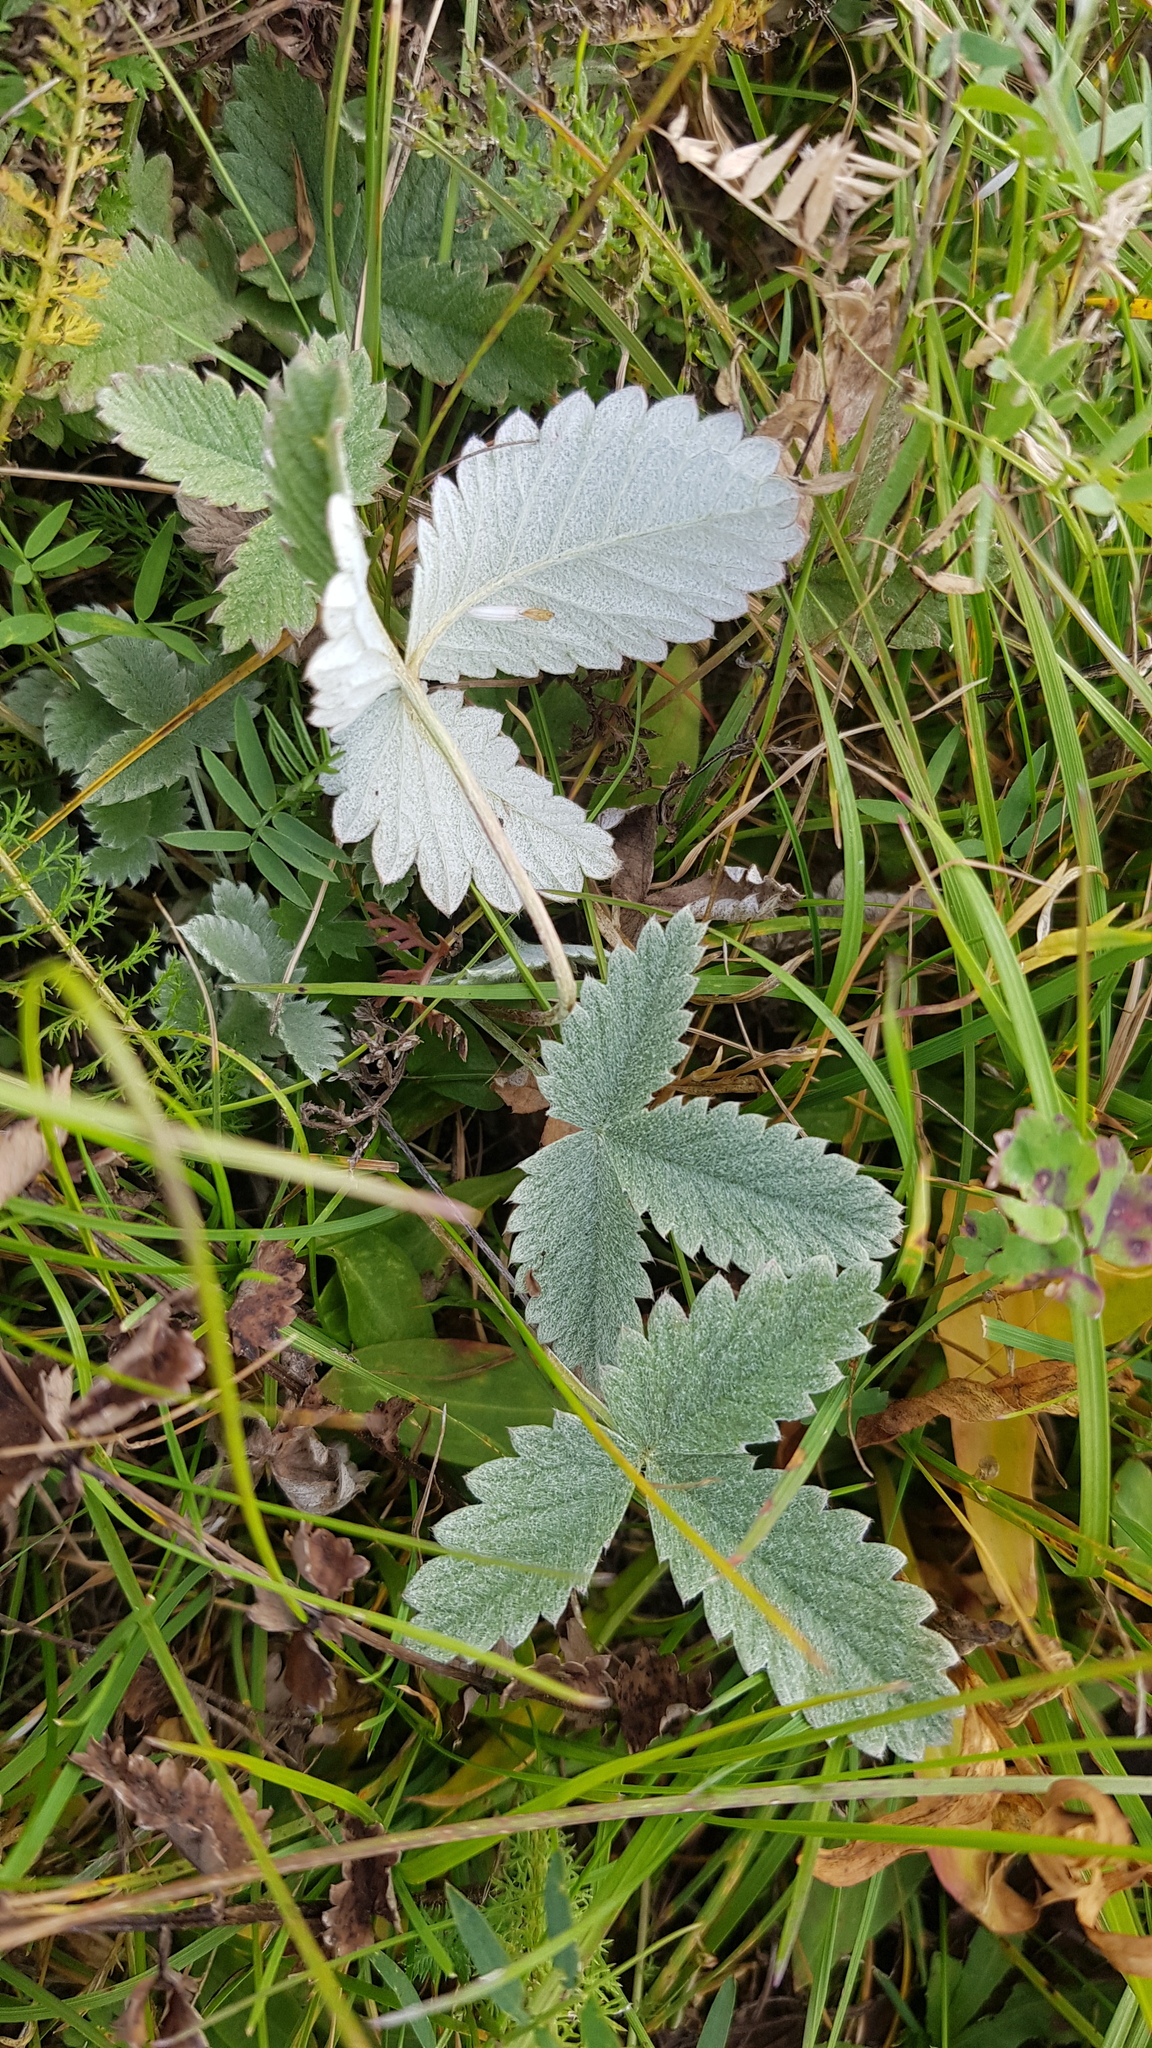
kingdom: Plantae
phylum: Tracheophyta
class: Magnoliopsida
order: Rosales
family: Rosaceae
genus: Potentilla
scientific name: Potentilla nivea
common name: Snow cinquefoil
